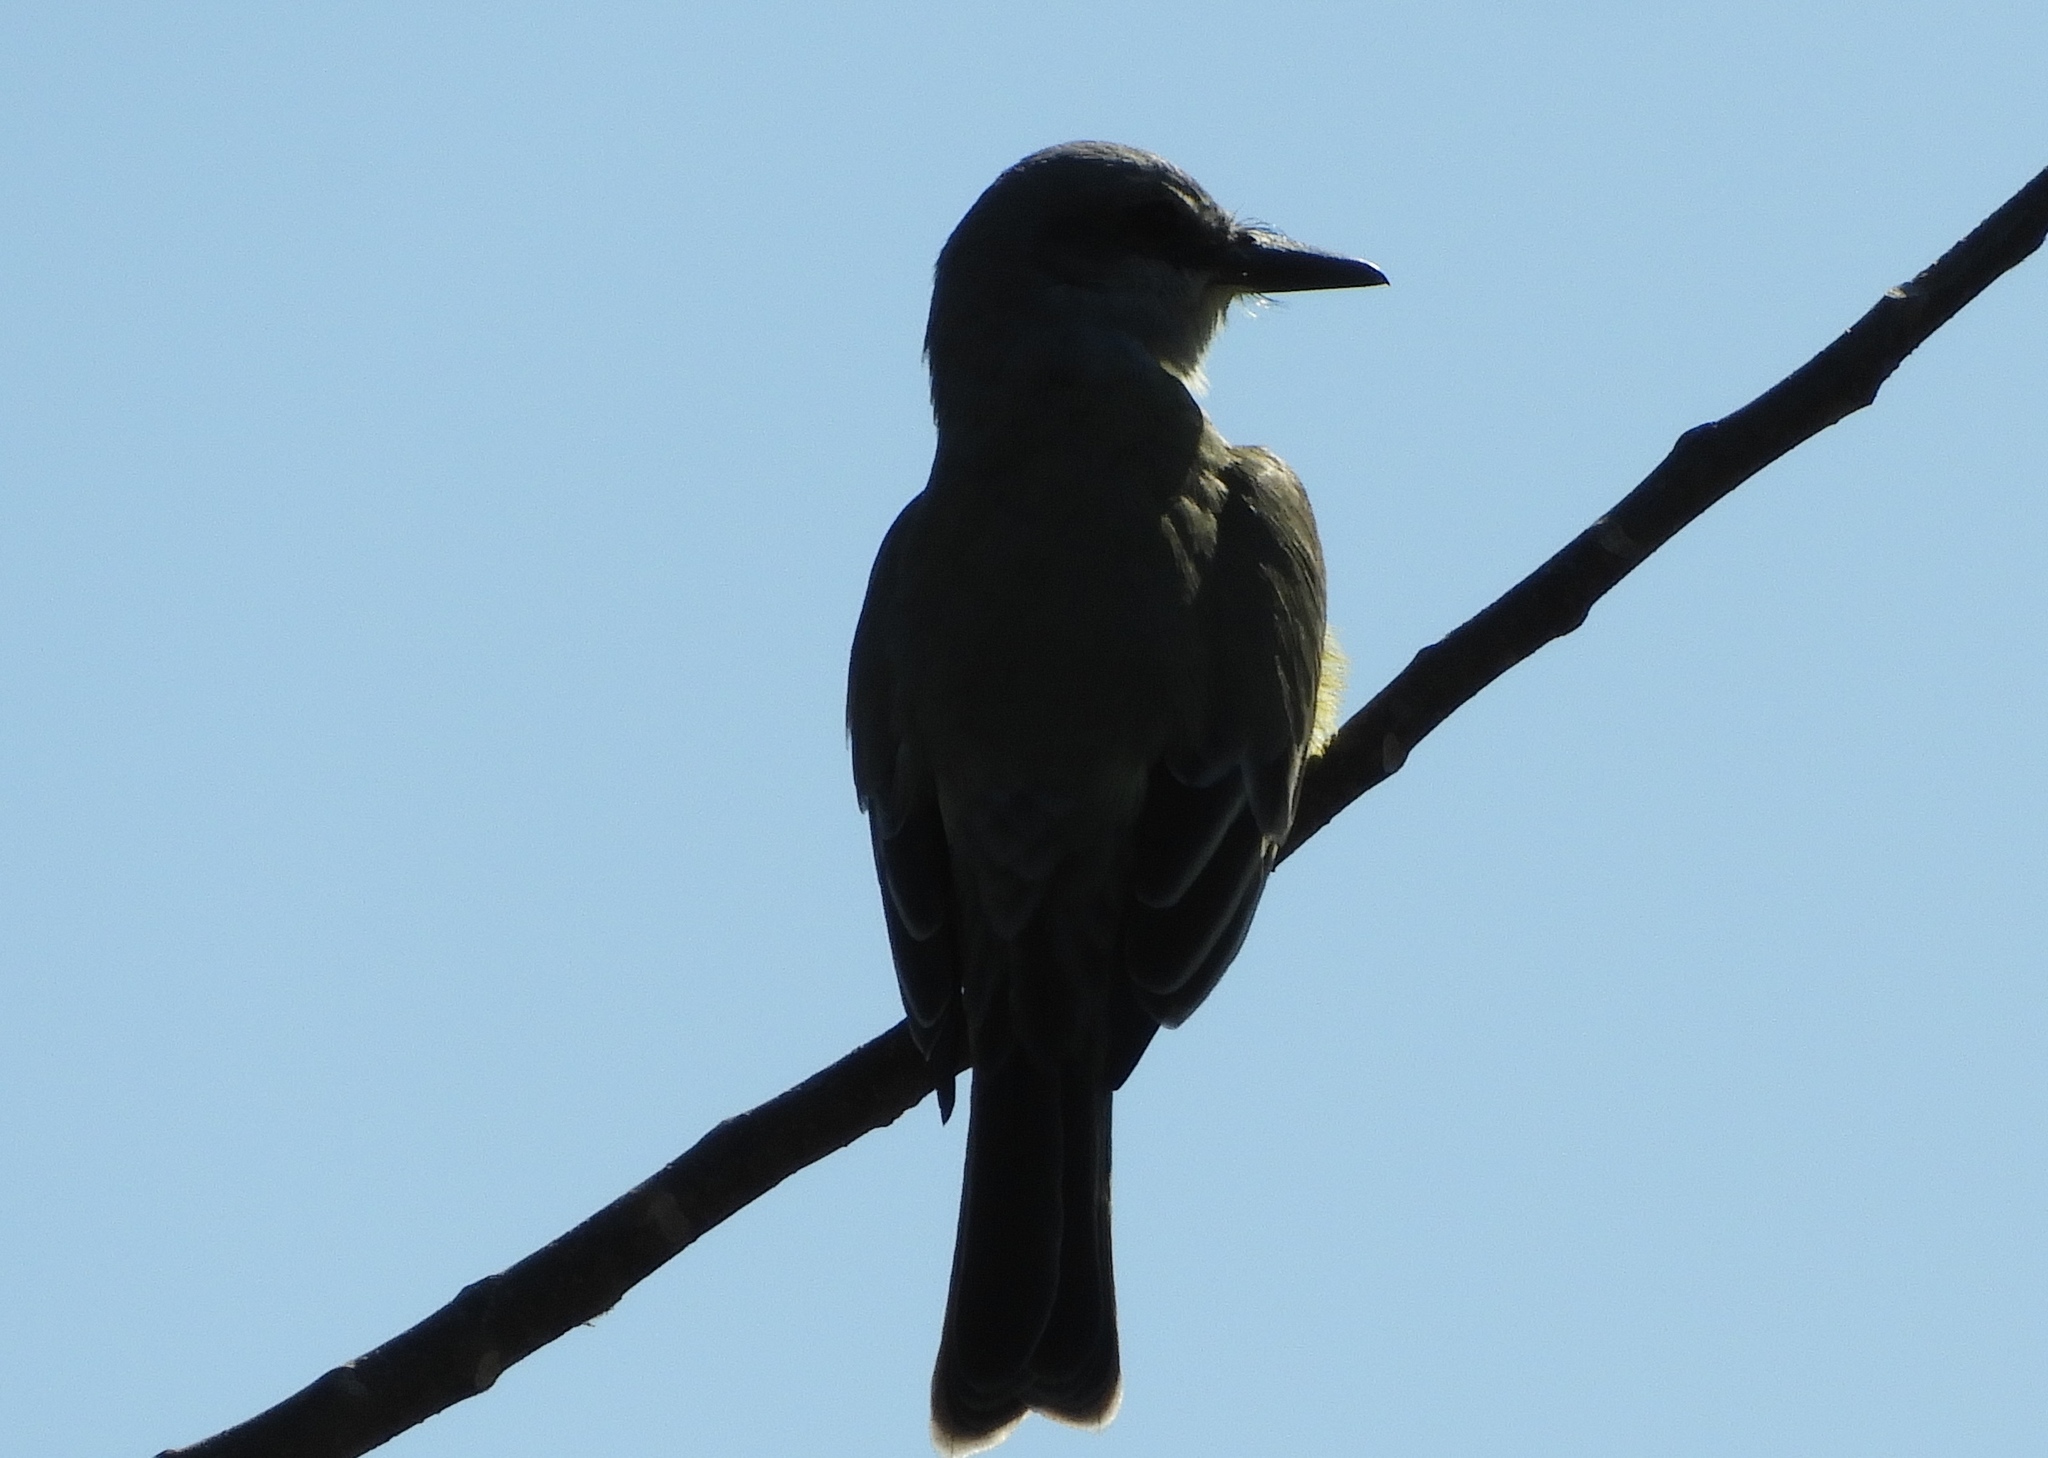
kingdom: Animalia
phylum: Chordata
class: Aves
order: Passeriformes
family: Tyrannidae
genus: Tyrannus
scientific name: Tyrannus crassirostris
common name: Thick-billed kingbird
